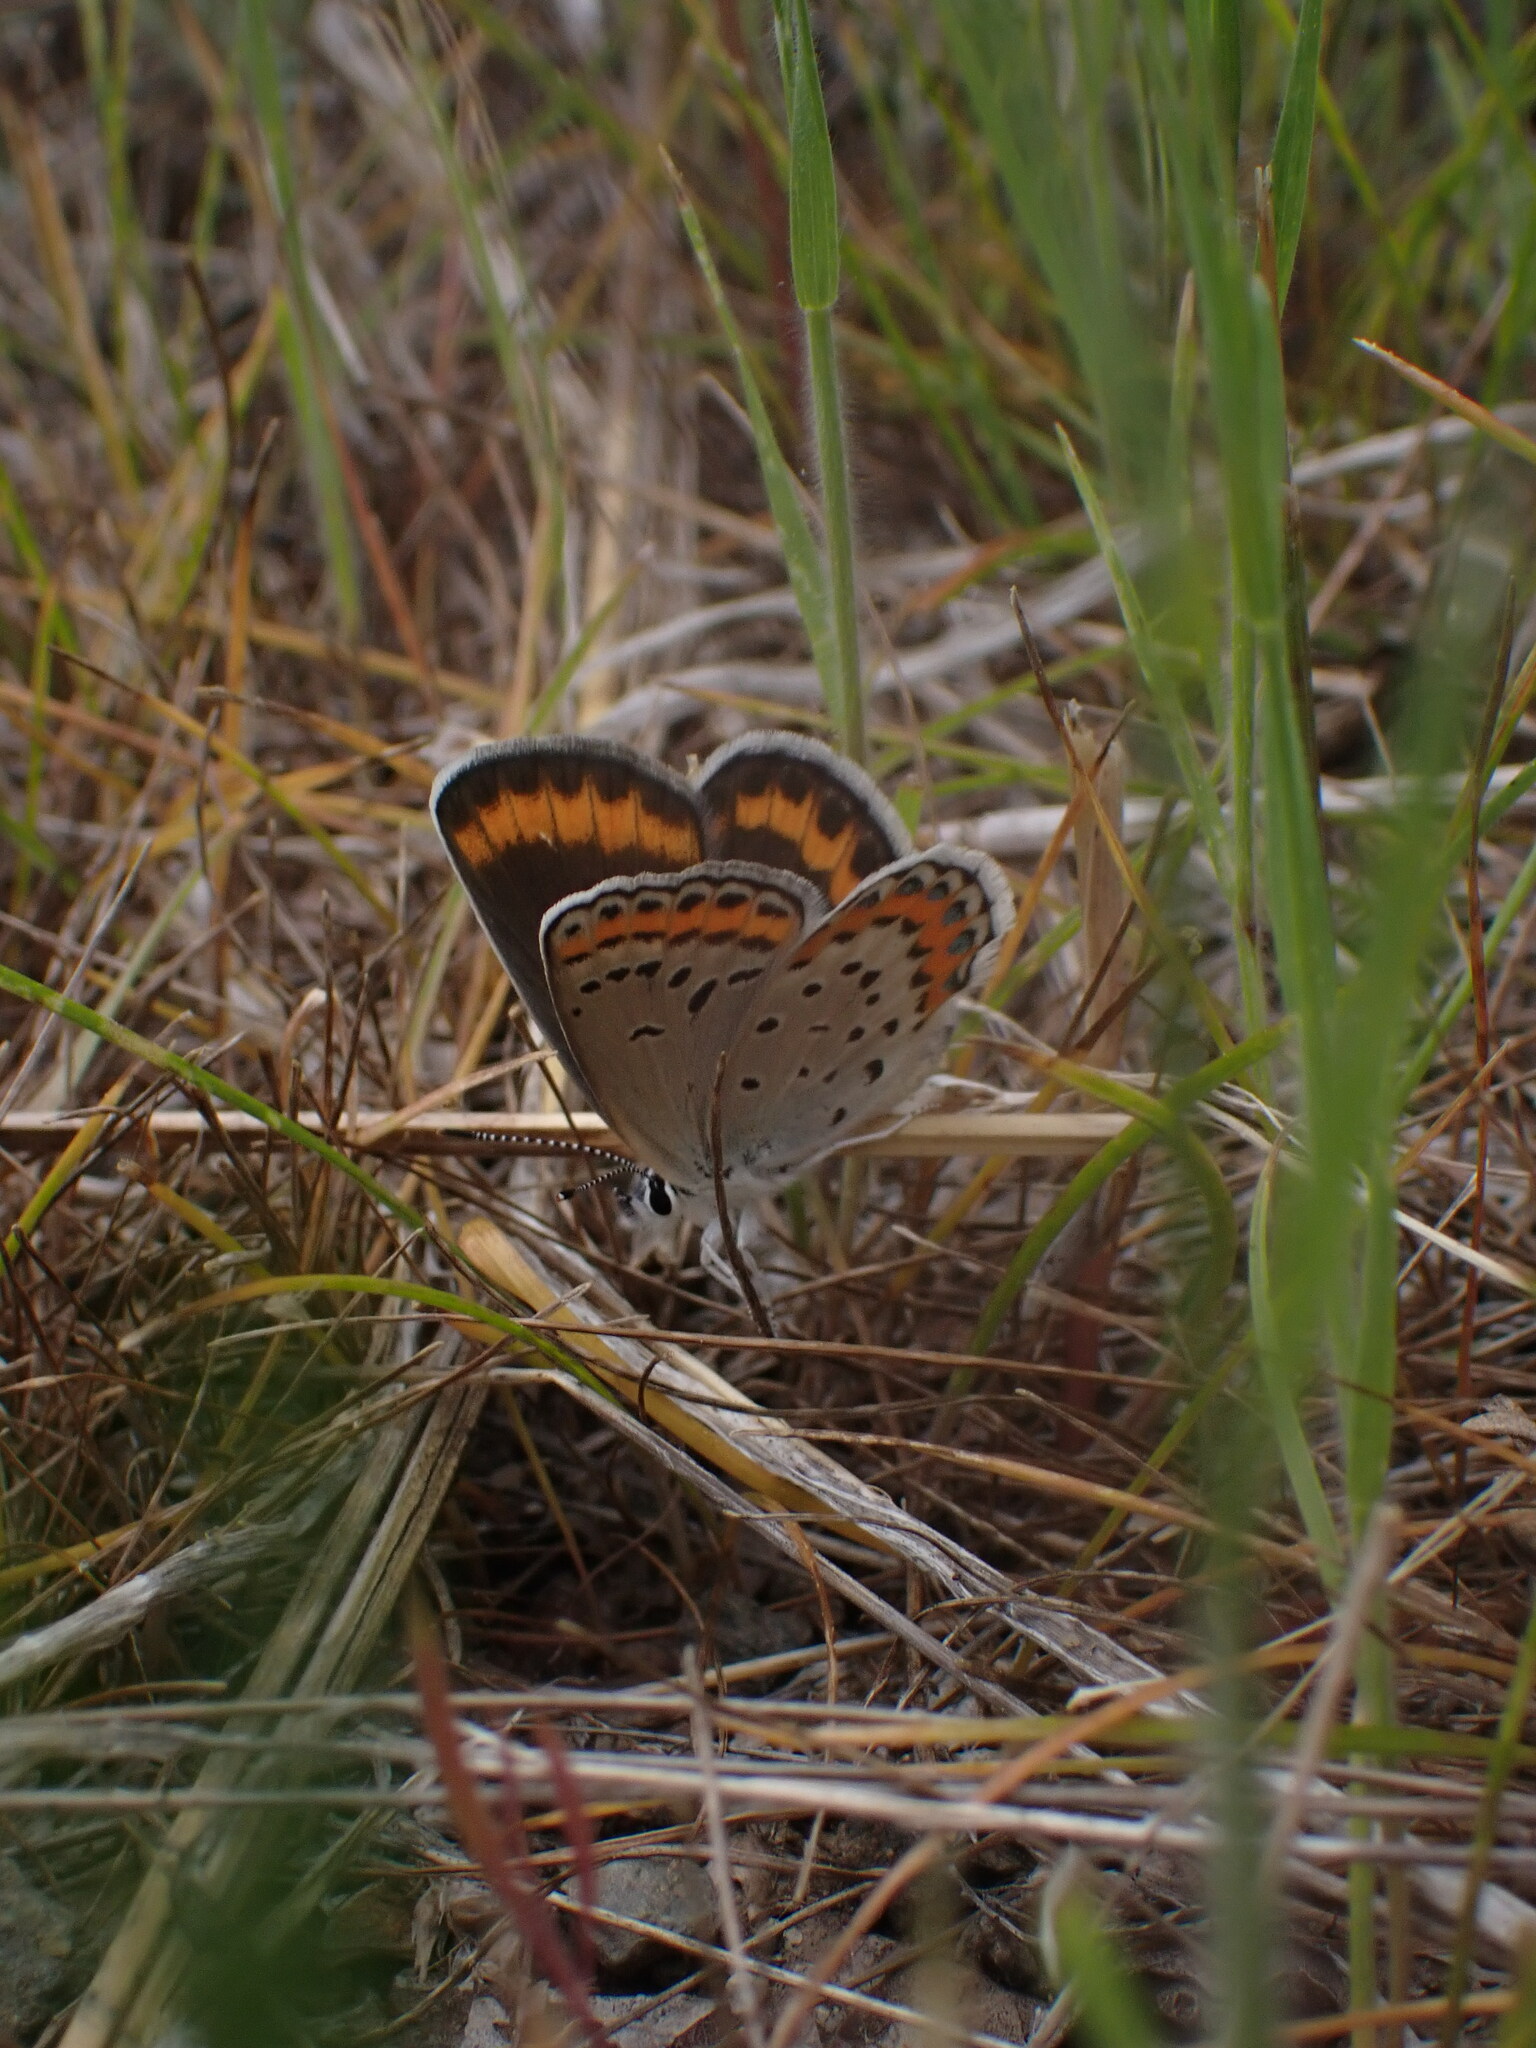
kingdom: Animalia
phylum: Arthropoda
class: Insecta
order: Lepidoptera
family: Lycaenidae
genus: Lycaeides
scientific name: Lycaeides melissa
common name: Melissa blue
